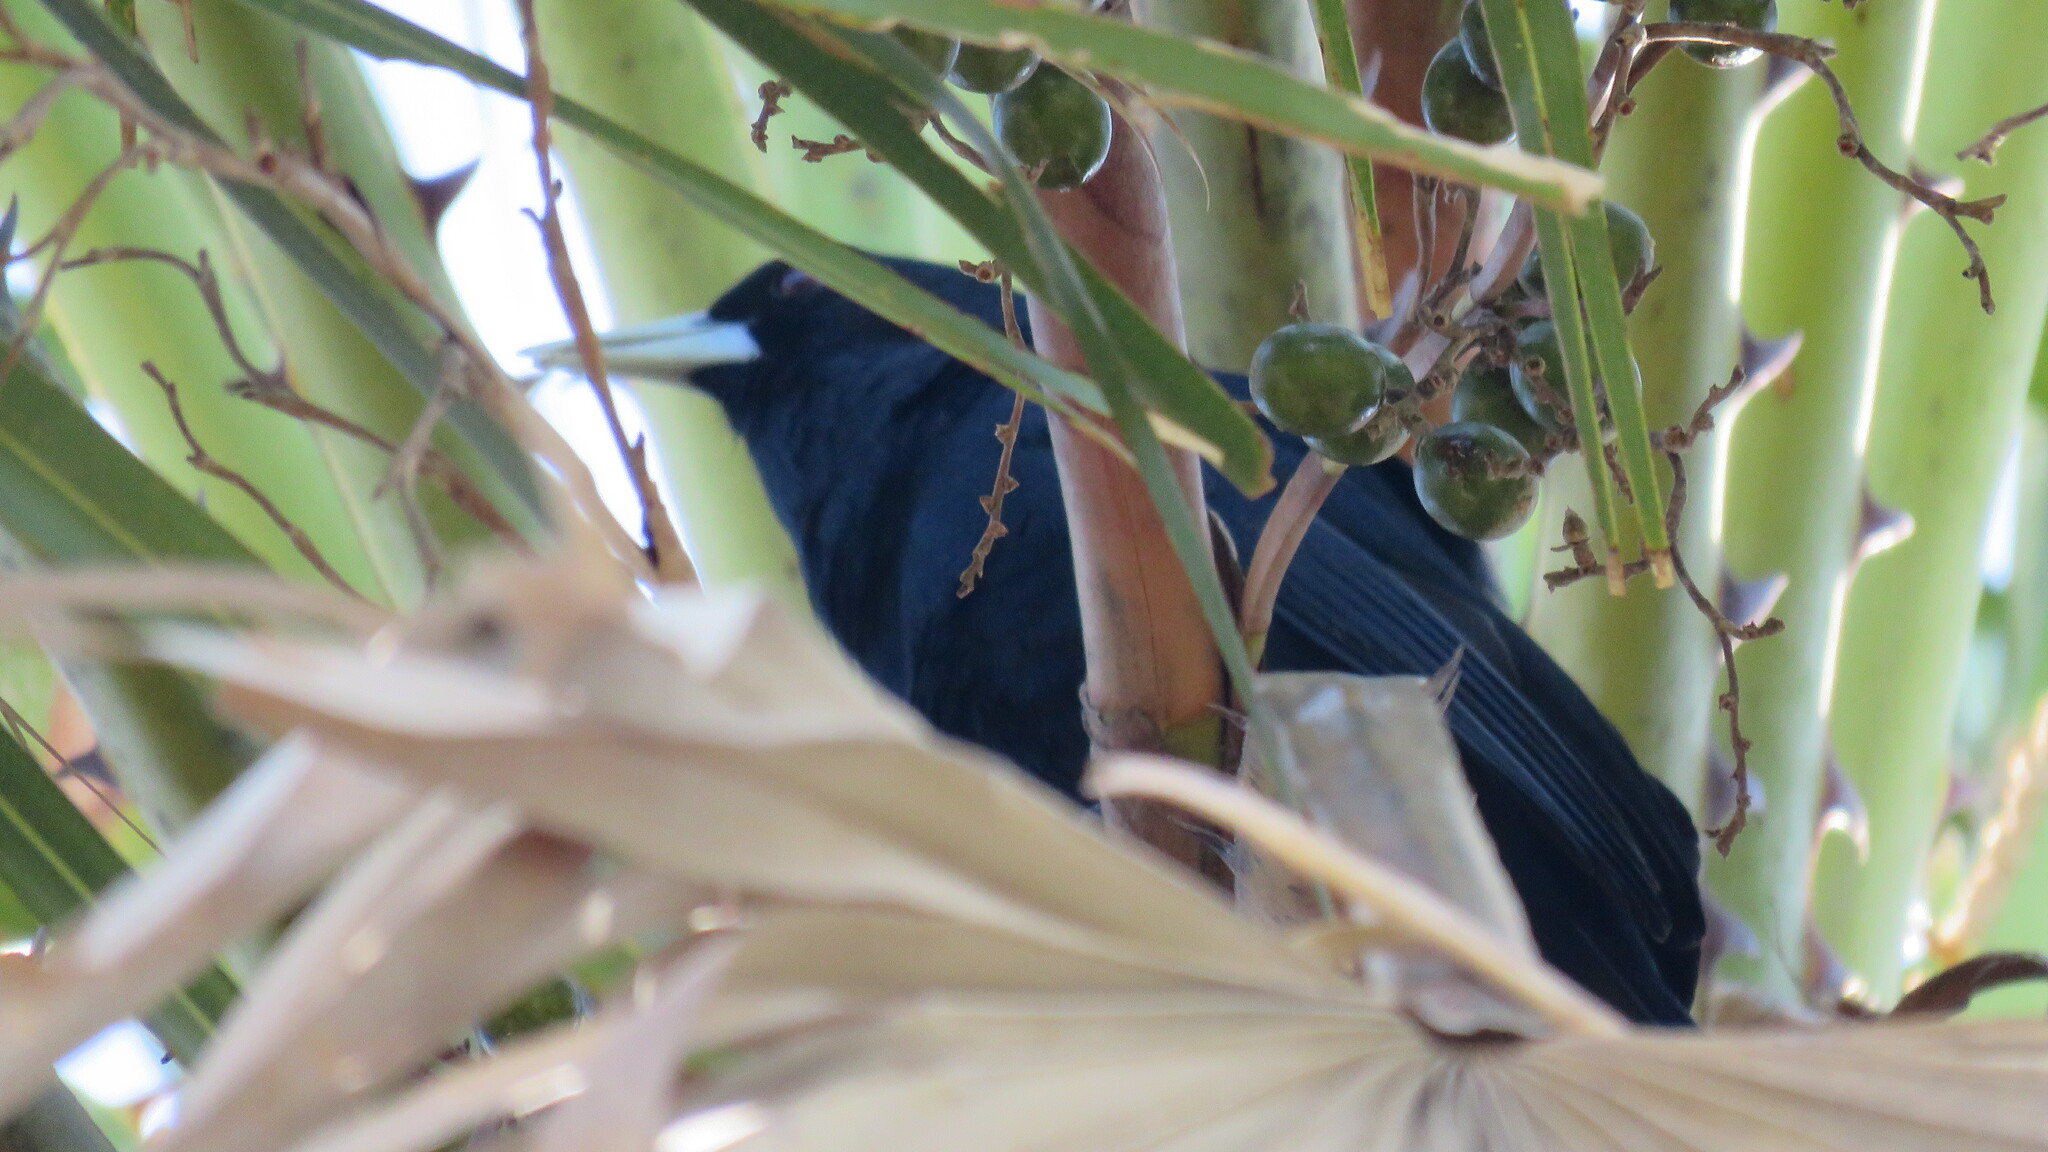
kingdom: Animalia
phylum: Chordata
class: Aves
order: Passeriformes
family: Icteridae
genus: Cacicus
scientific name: Cacicus solitarius
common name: Solitary cacique
